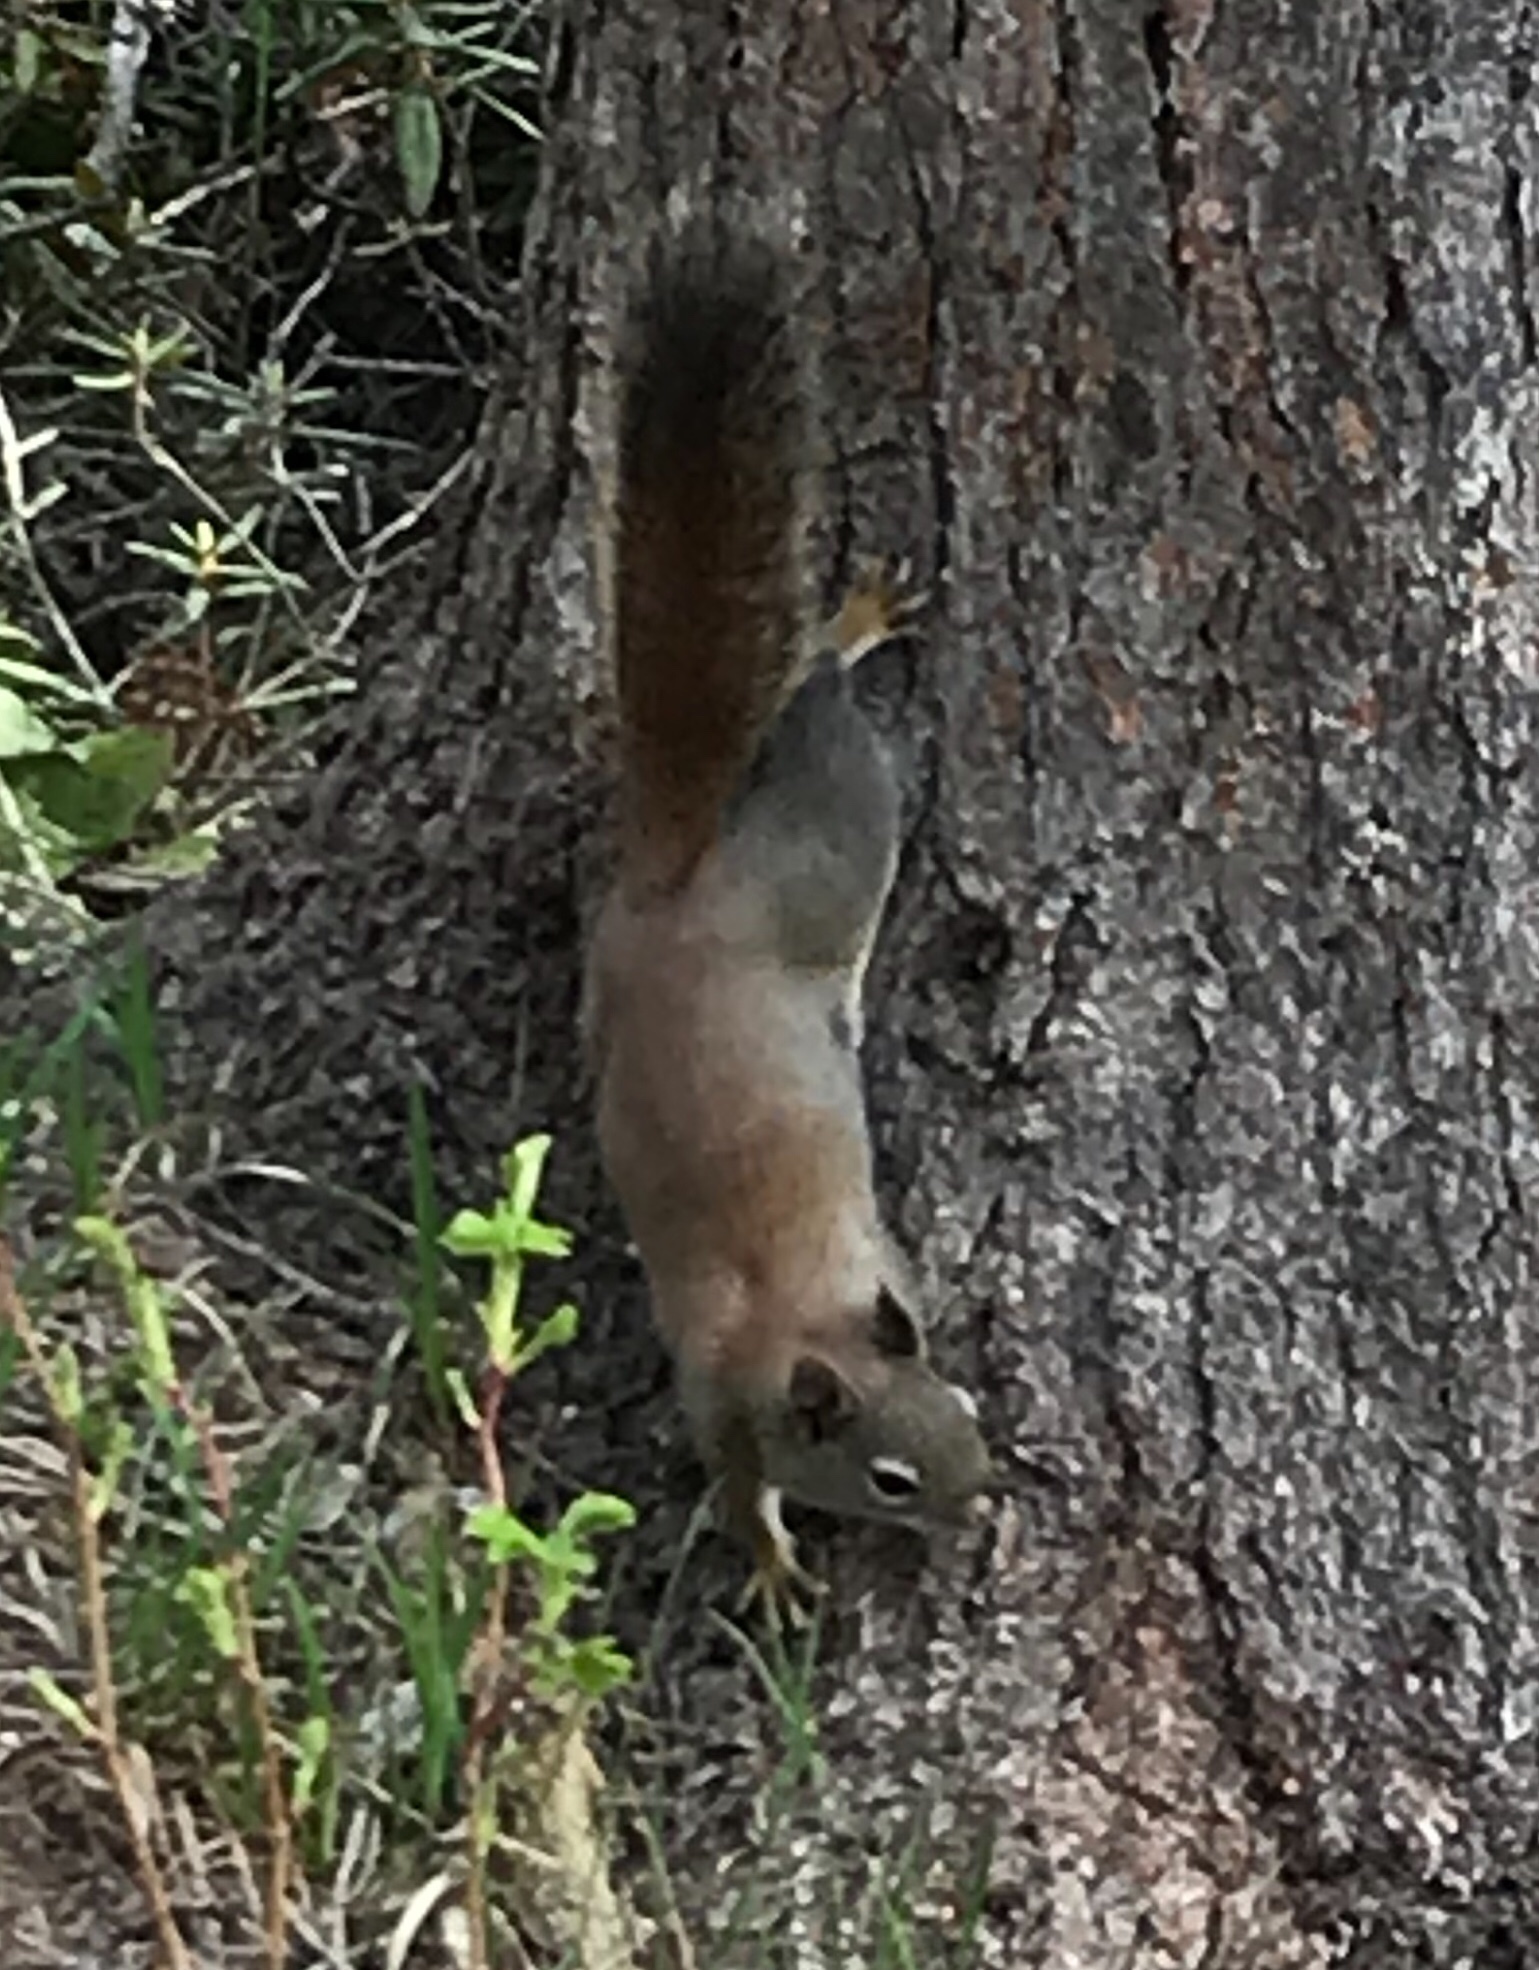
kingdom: Animalia
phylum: Chordata
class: Mammalia
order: Rodentia
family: Sciuridae
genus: Tamiasciurus
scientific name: Tamiasciurus hudsonicus
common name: Red squirrel
